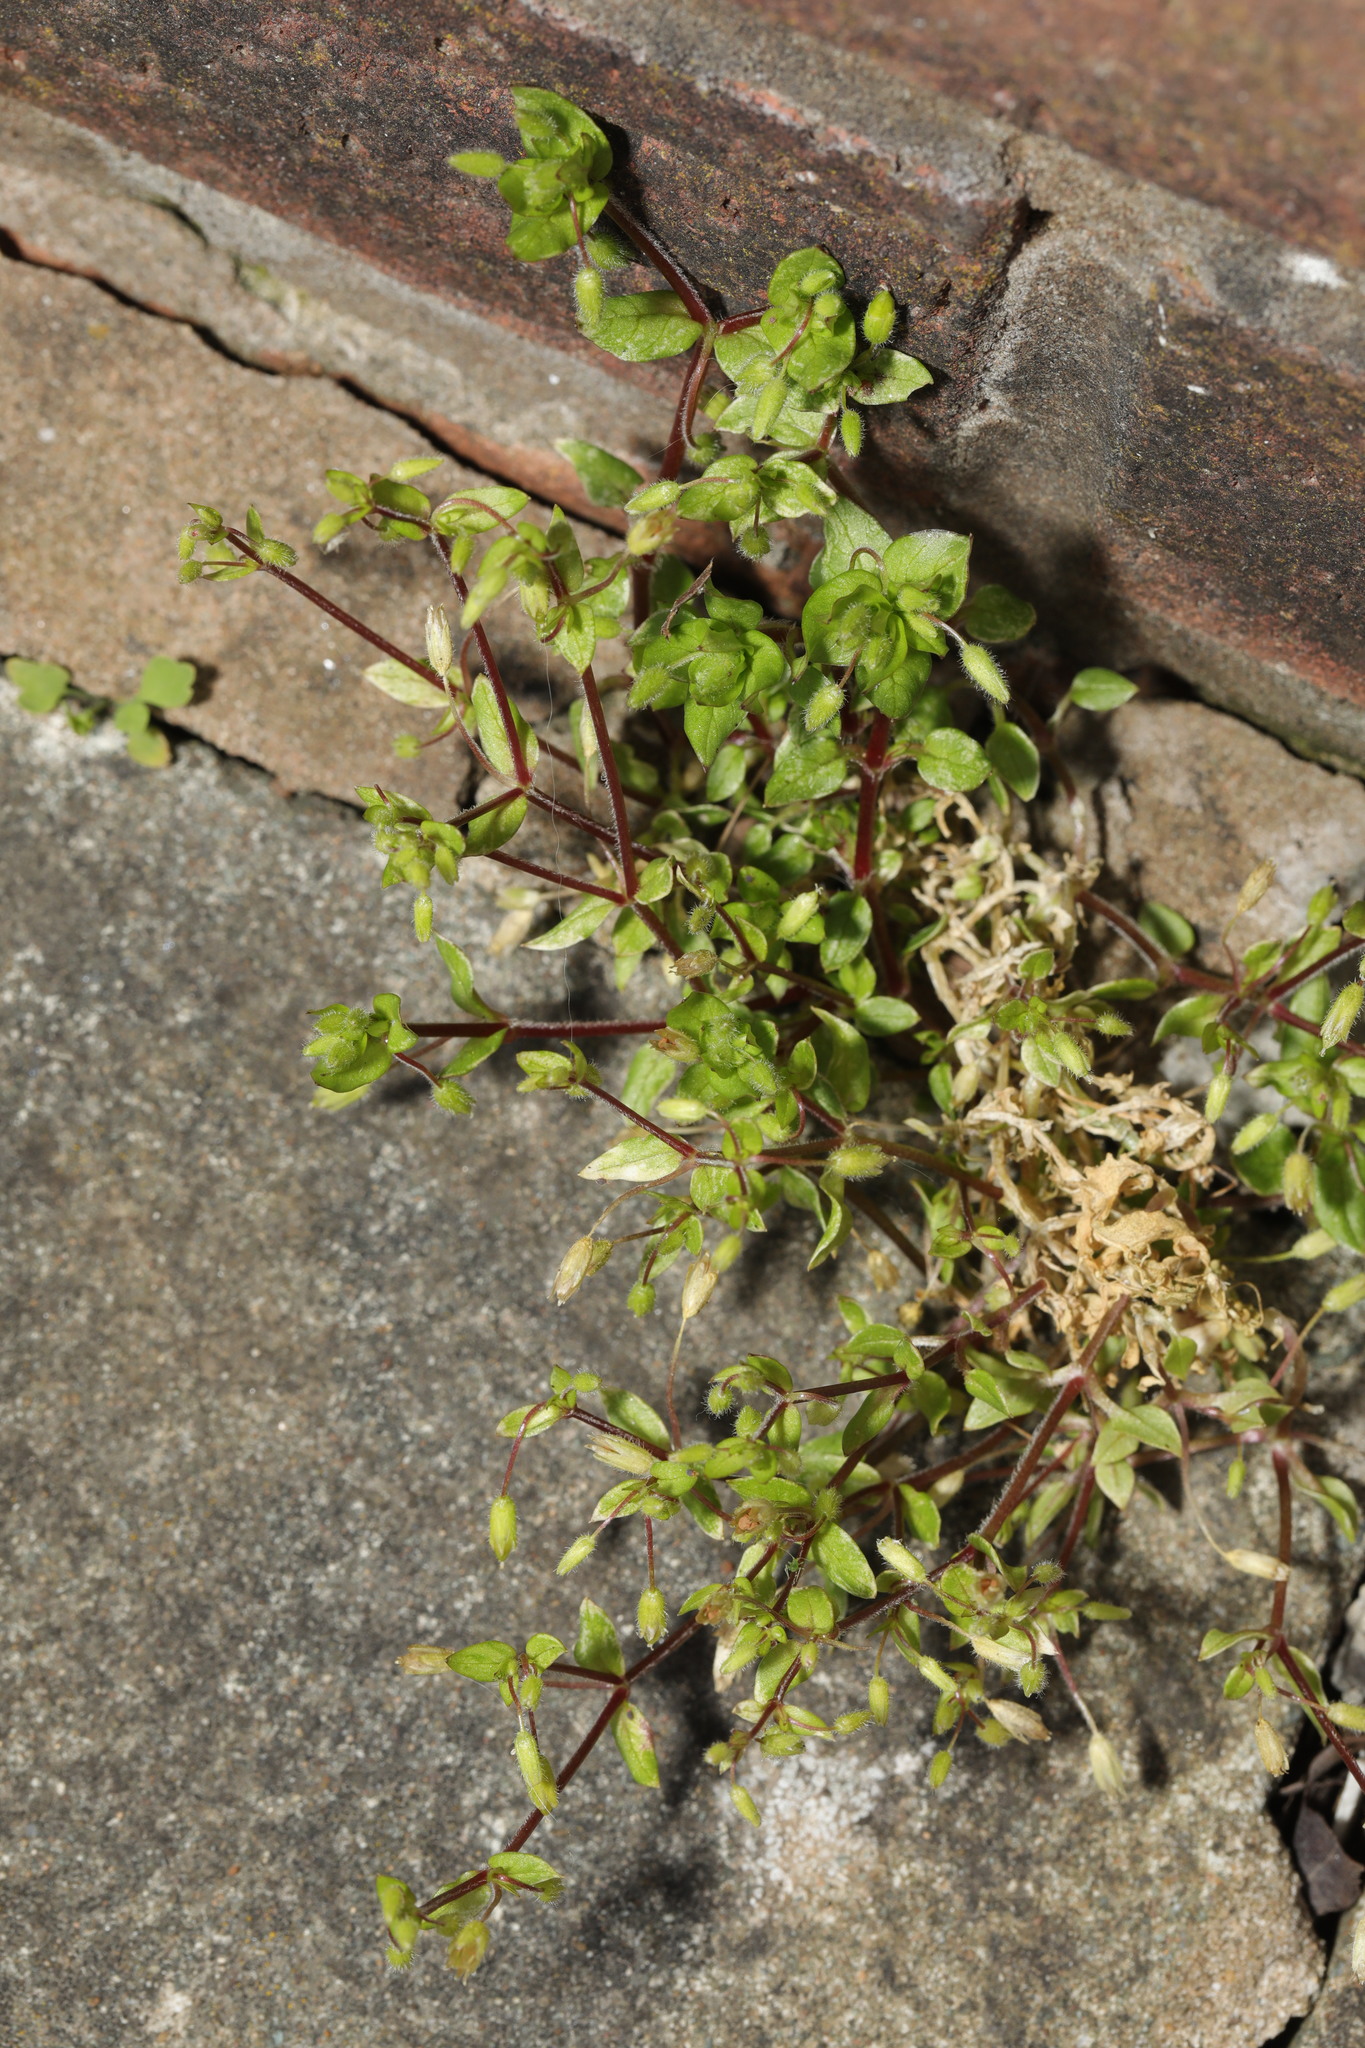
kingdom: Plantae
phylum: Tracheophyta
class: Magnoliopsida
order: Caryophyllales
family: Caryophyllaceae
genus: Stellaria
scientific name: Stellaria media
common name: Common chickweed
